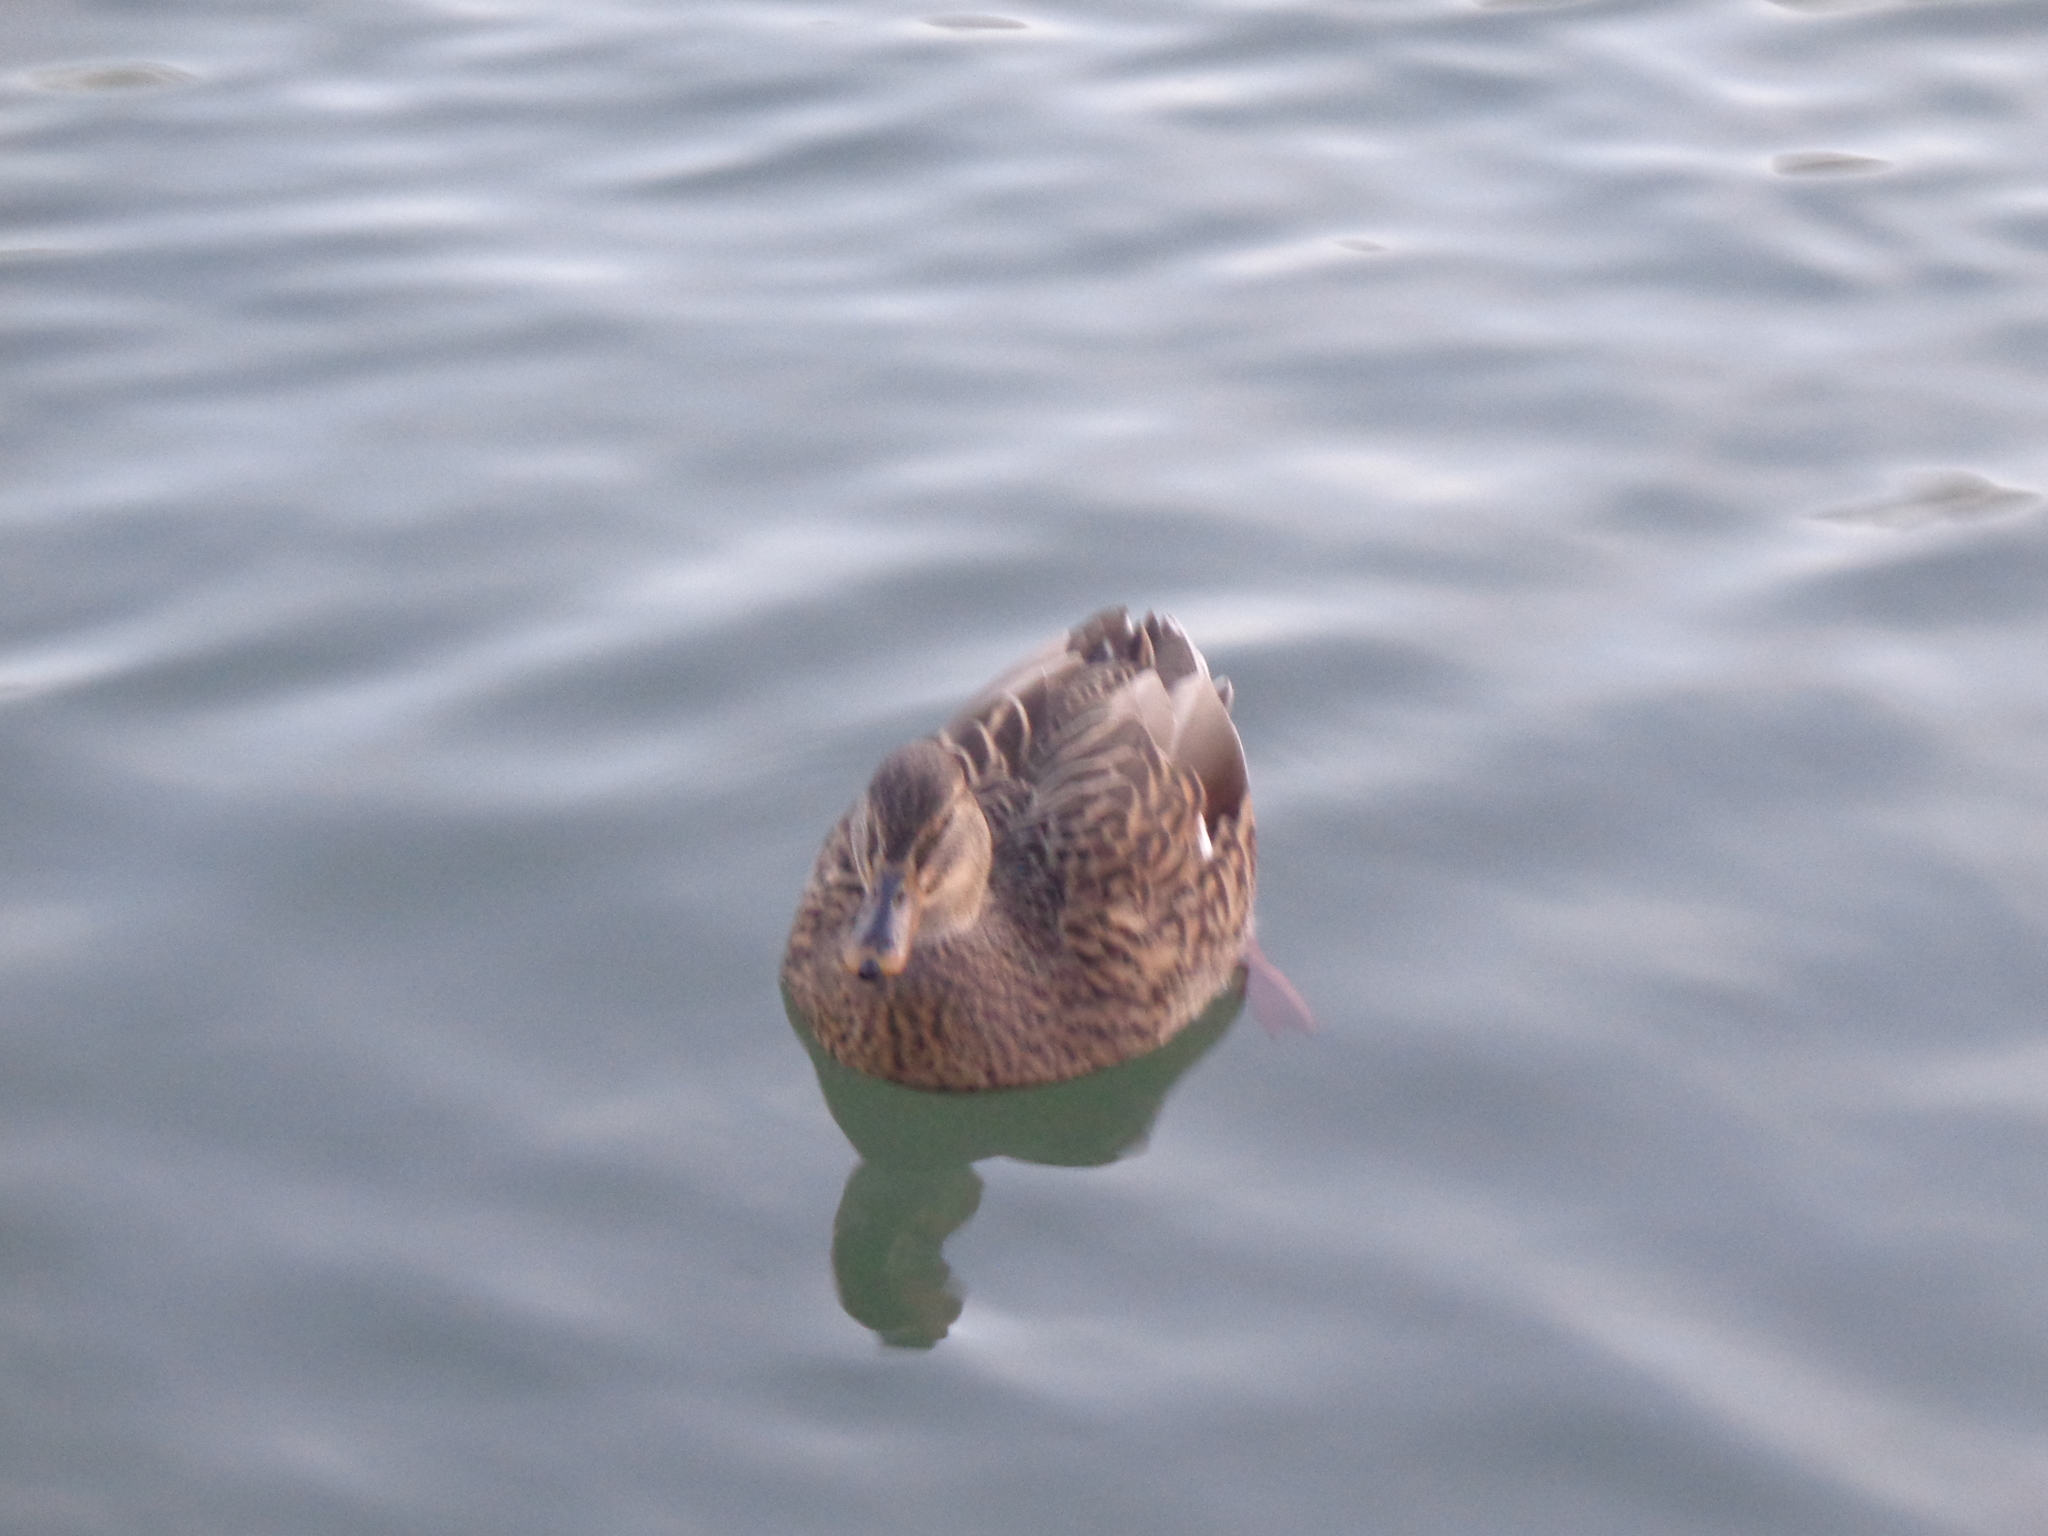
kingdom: Animalia
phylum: Chordata
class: Aves
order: Anseriformes
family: Anatidae
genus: Anas
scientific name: Anas platyrhynchos
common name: Mallard
